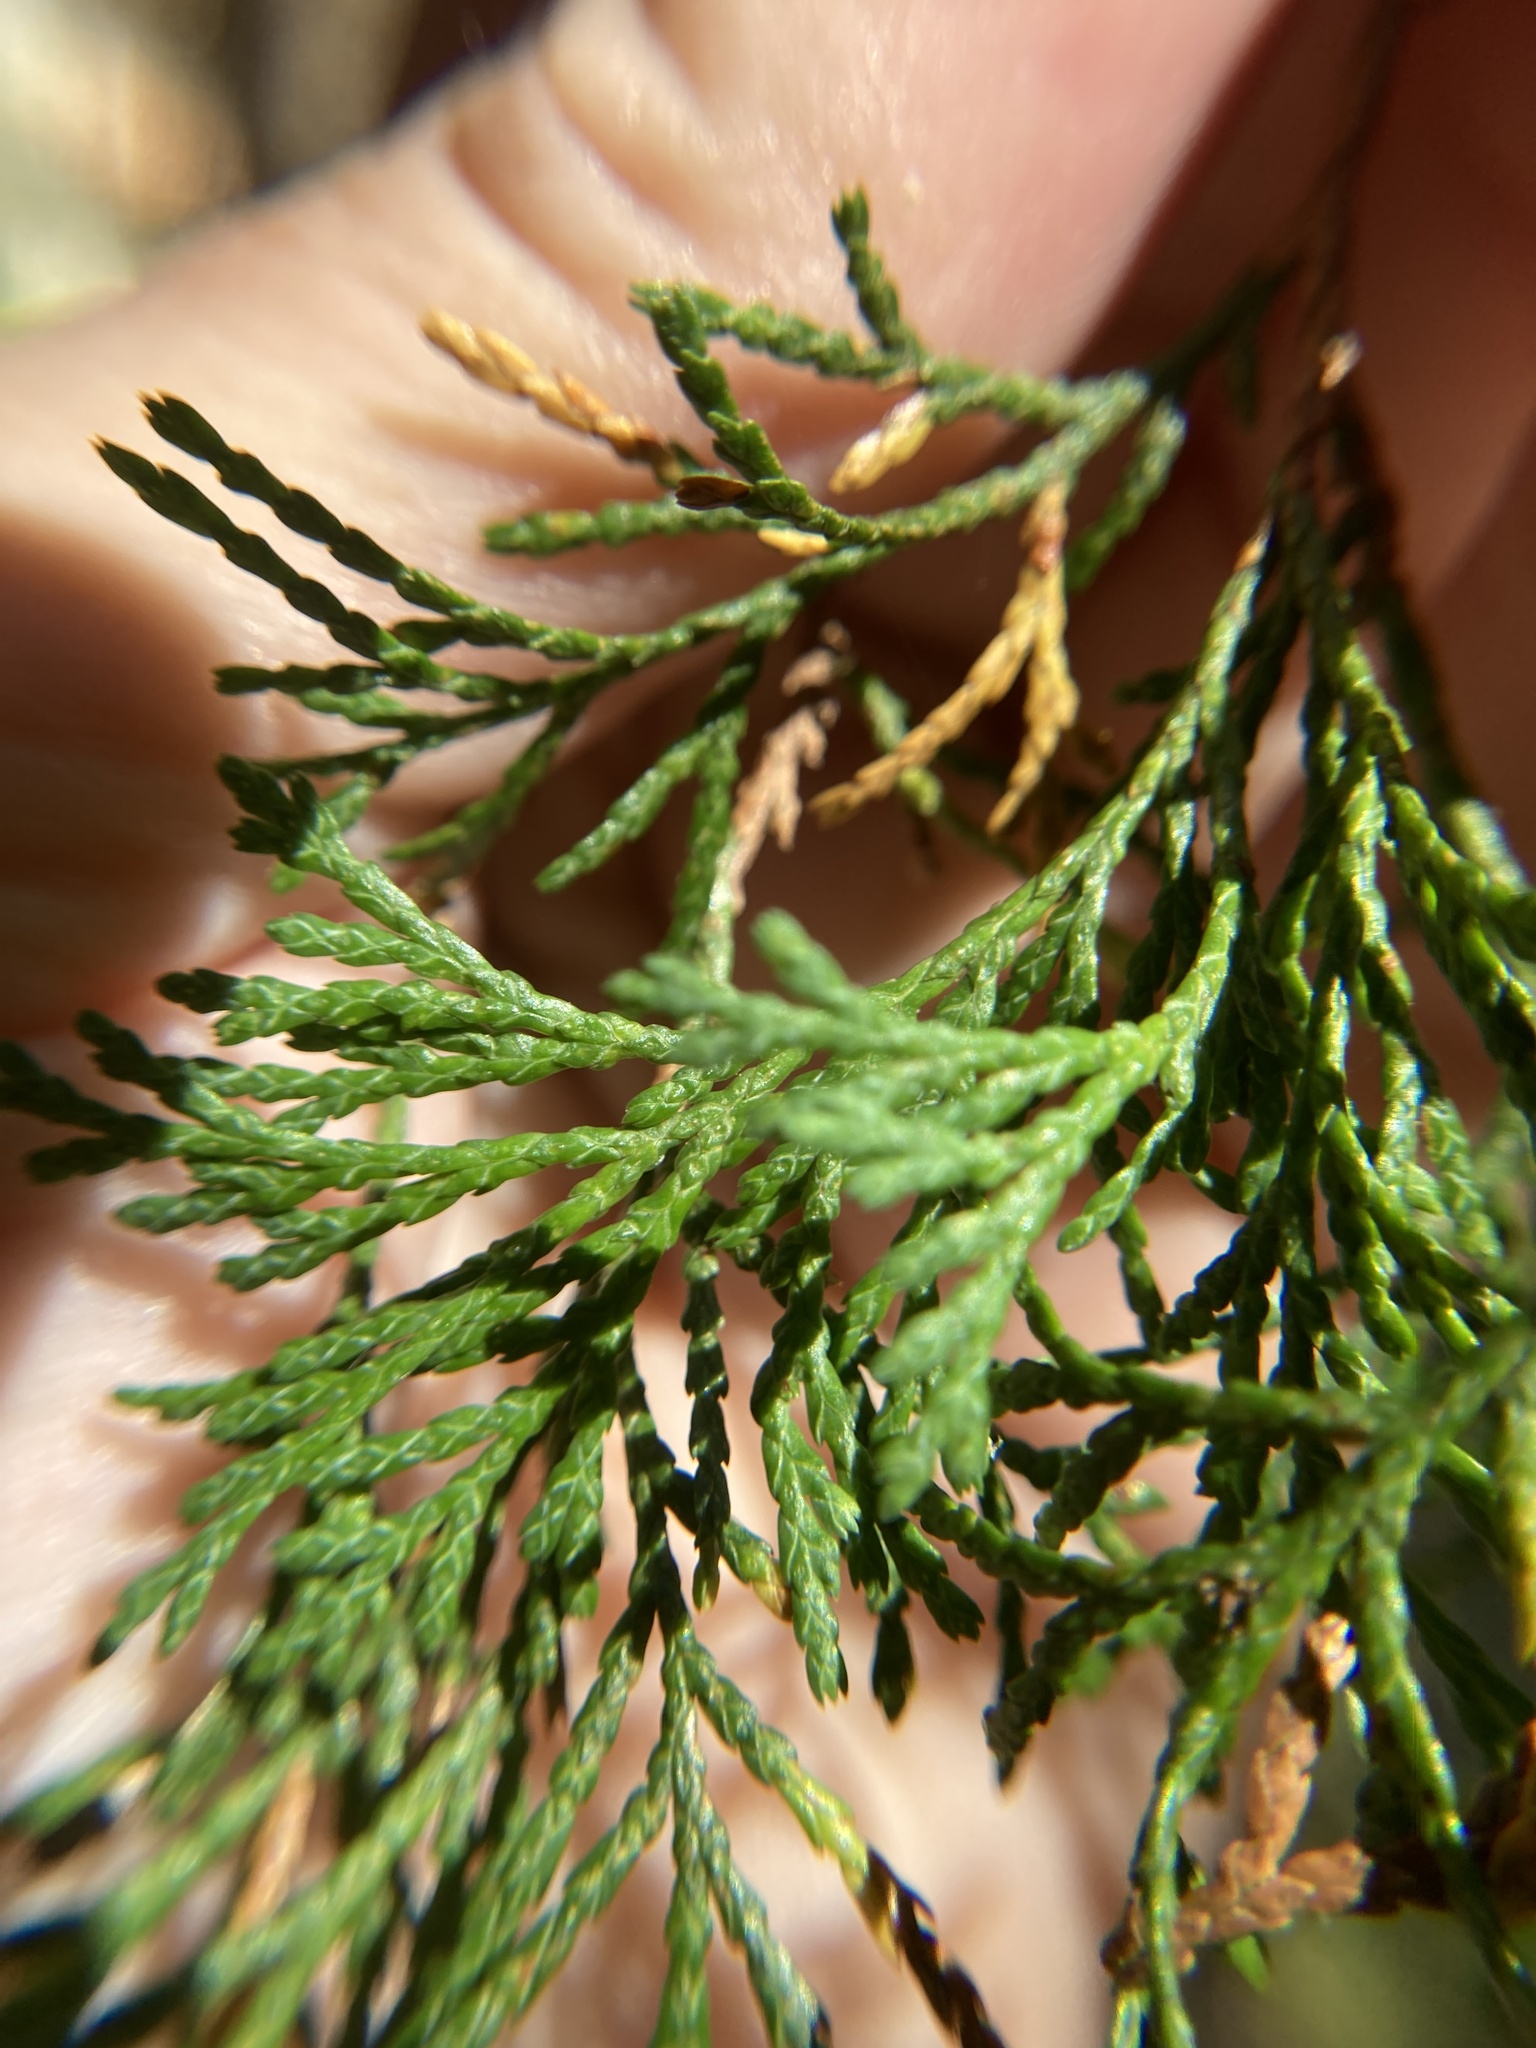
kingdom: Plantae
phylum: Tracheophyta
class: Pinopsida
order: Pinales
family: Cupressaceae
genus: Chamaecyparis
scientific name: Chamaecyparis thyoides
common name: Atlantic white cedar
